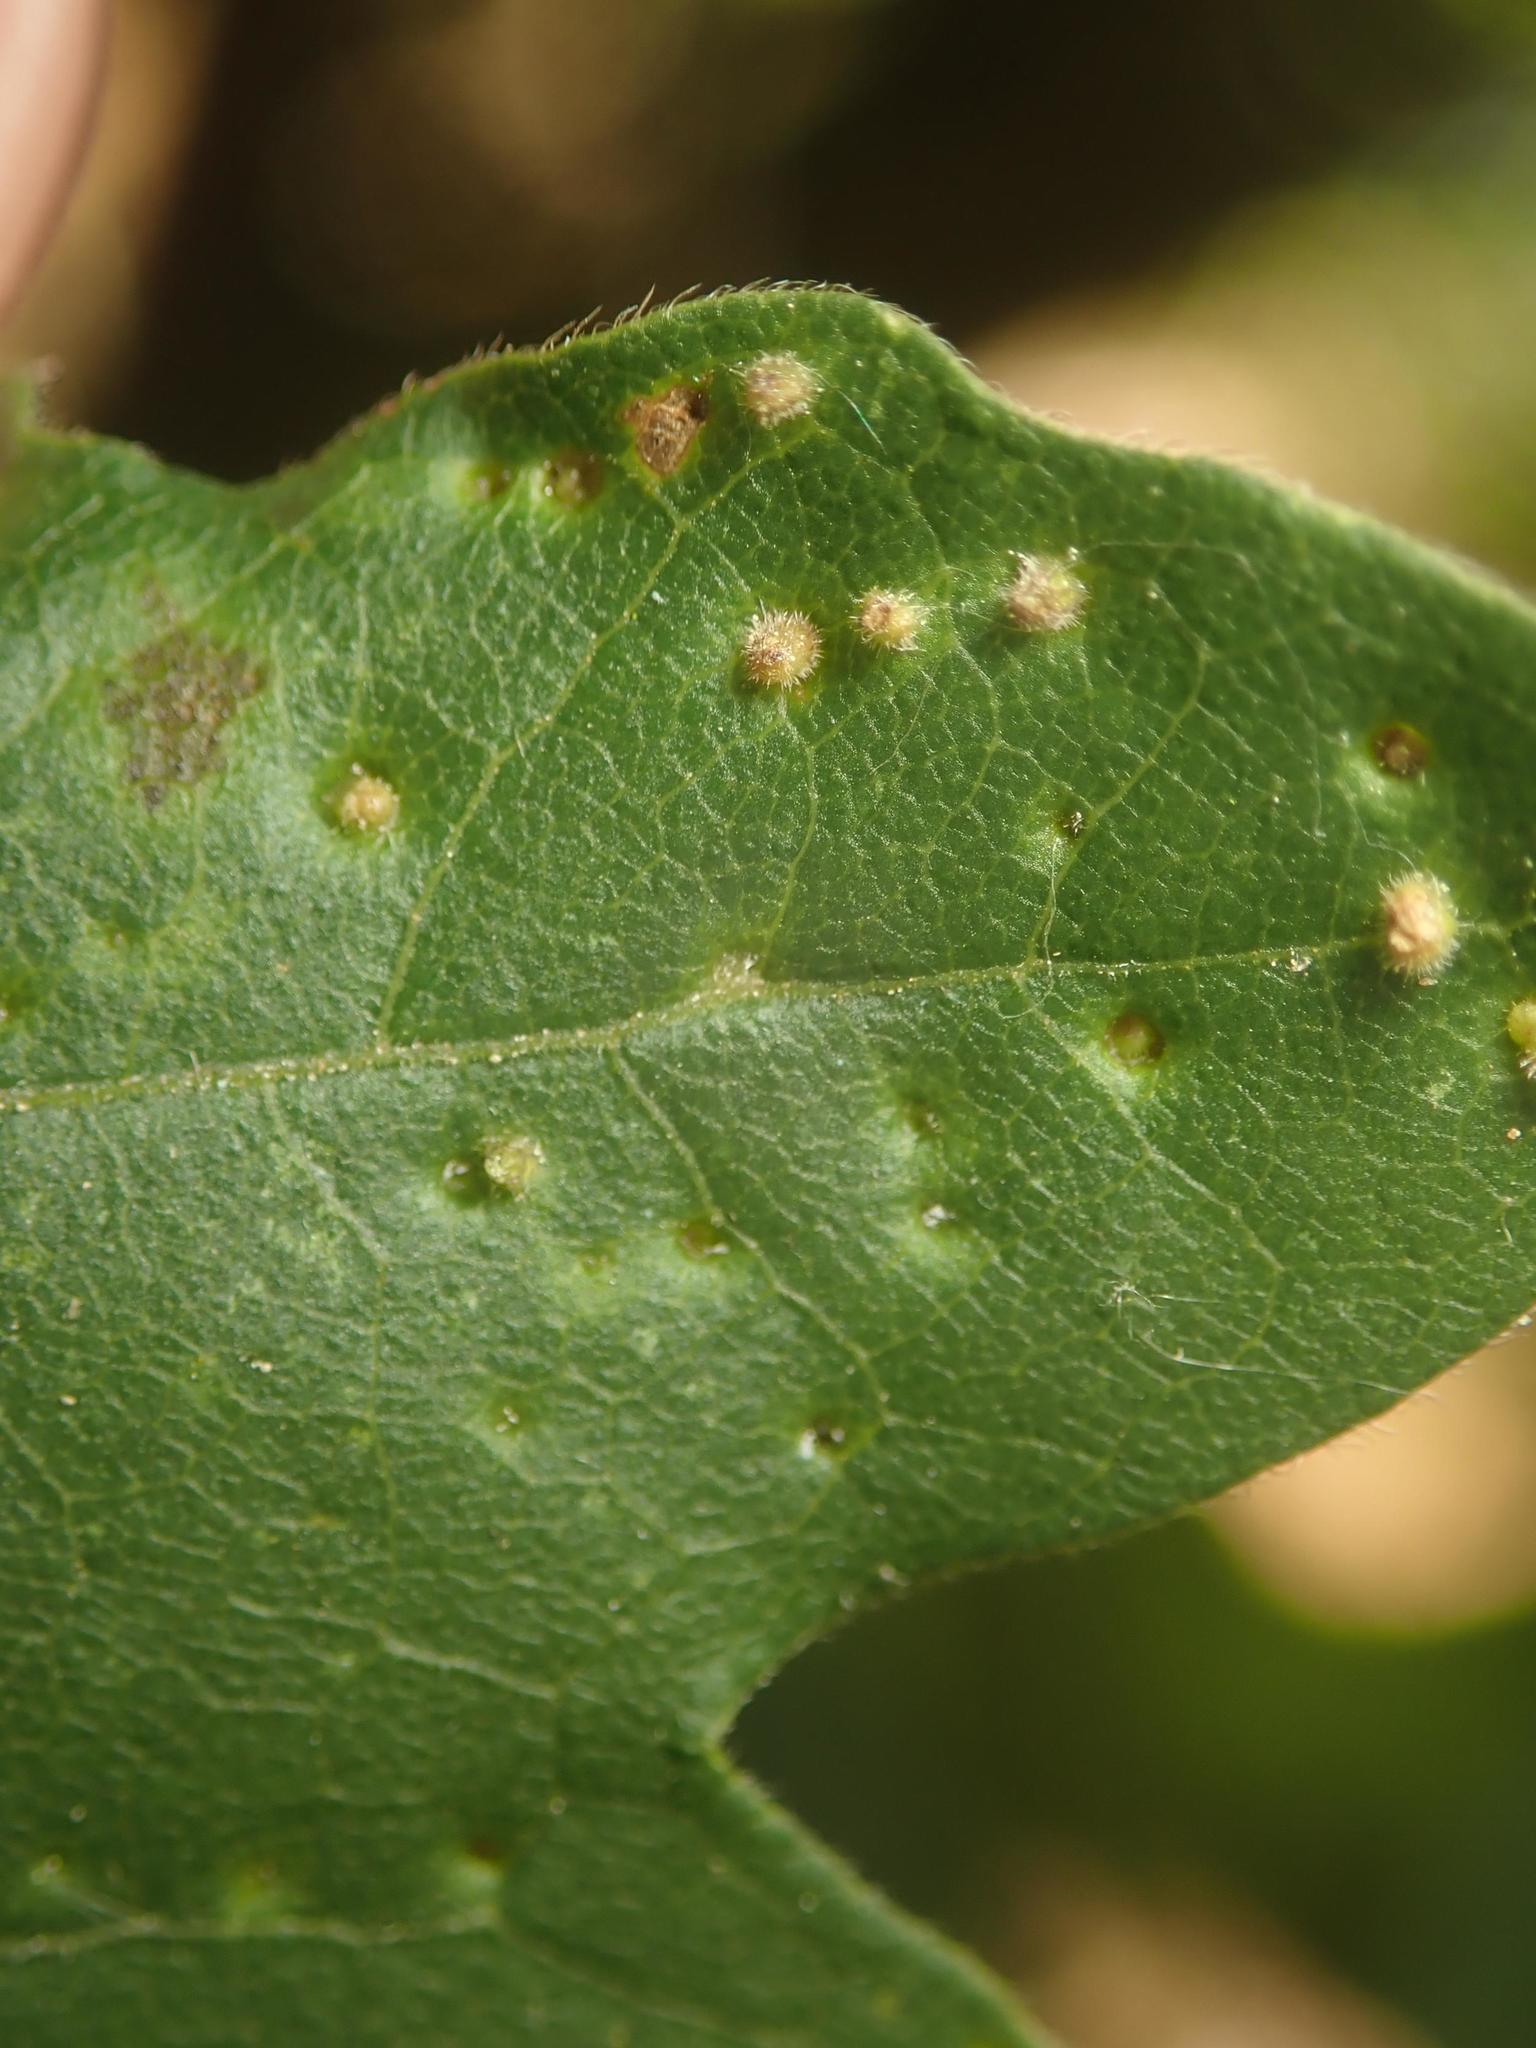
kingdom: Animalia
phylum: Arthropoda
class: Arachnida
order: Trombidiformes
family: Eriophyidae
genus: Aceria
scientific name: Aceria myriadeum
